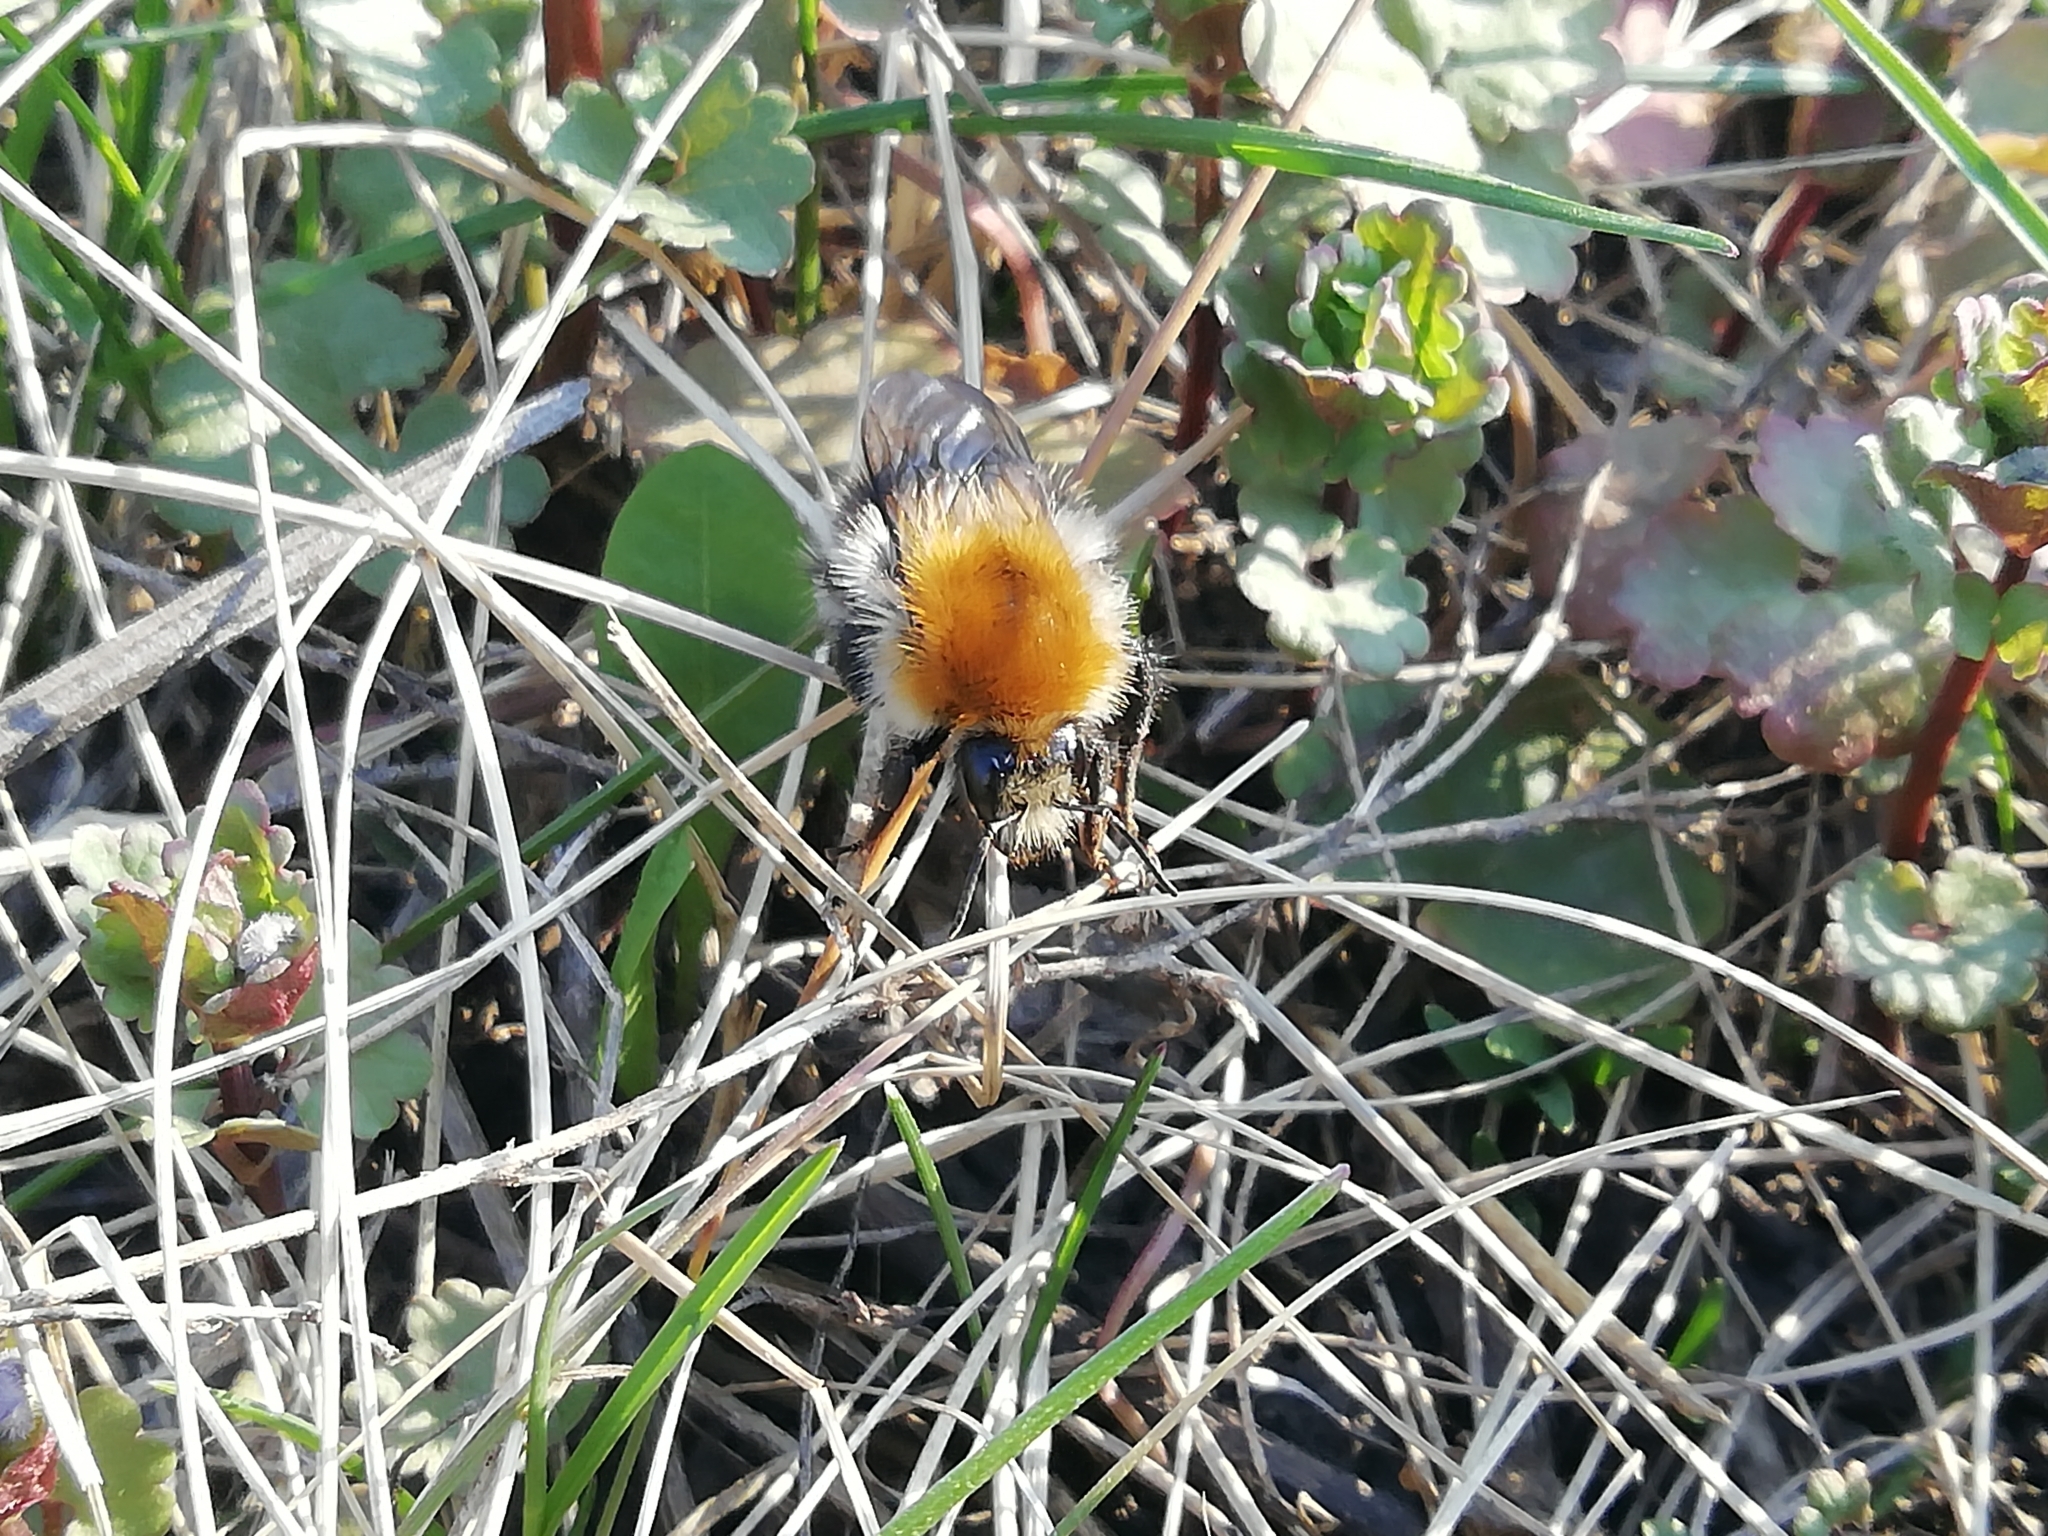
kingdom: Animalia
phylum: Arthropoda
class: Insecta
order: Hymenoptera
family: Apidae
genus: Bombus
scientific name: Bombus pascuorum
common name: Common carder bee
